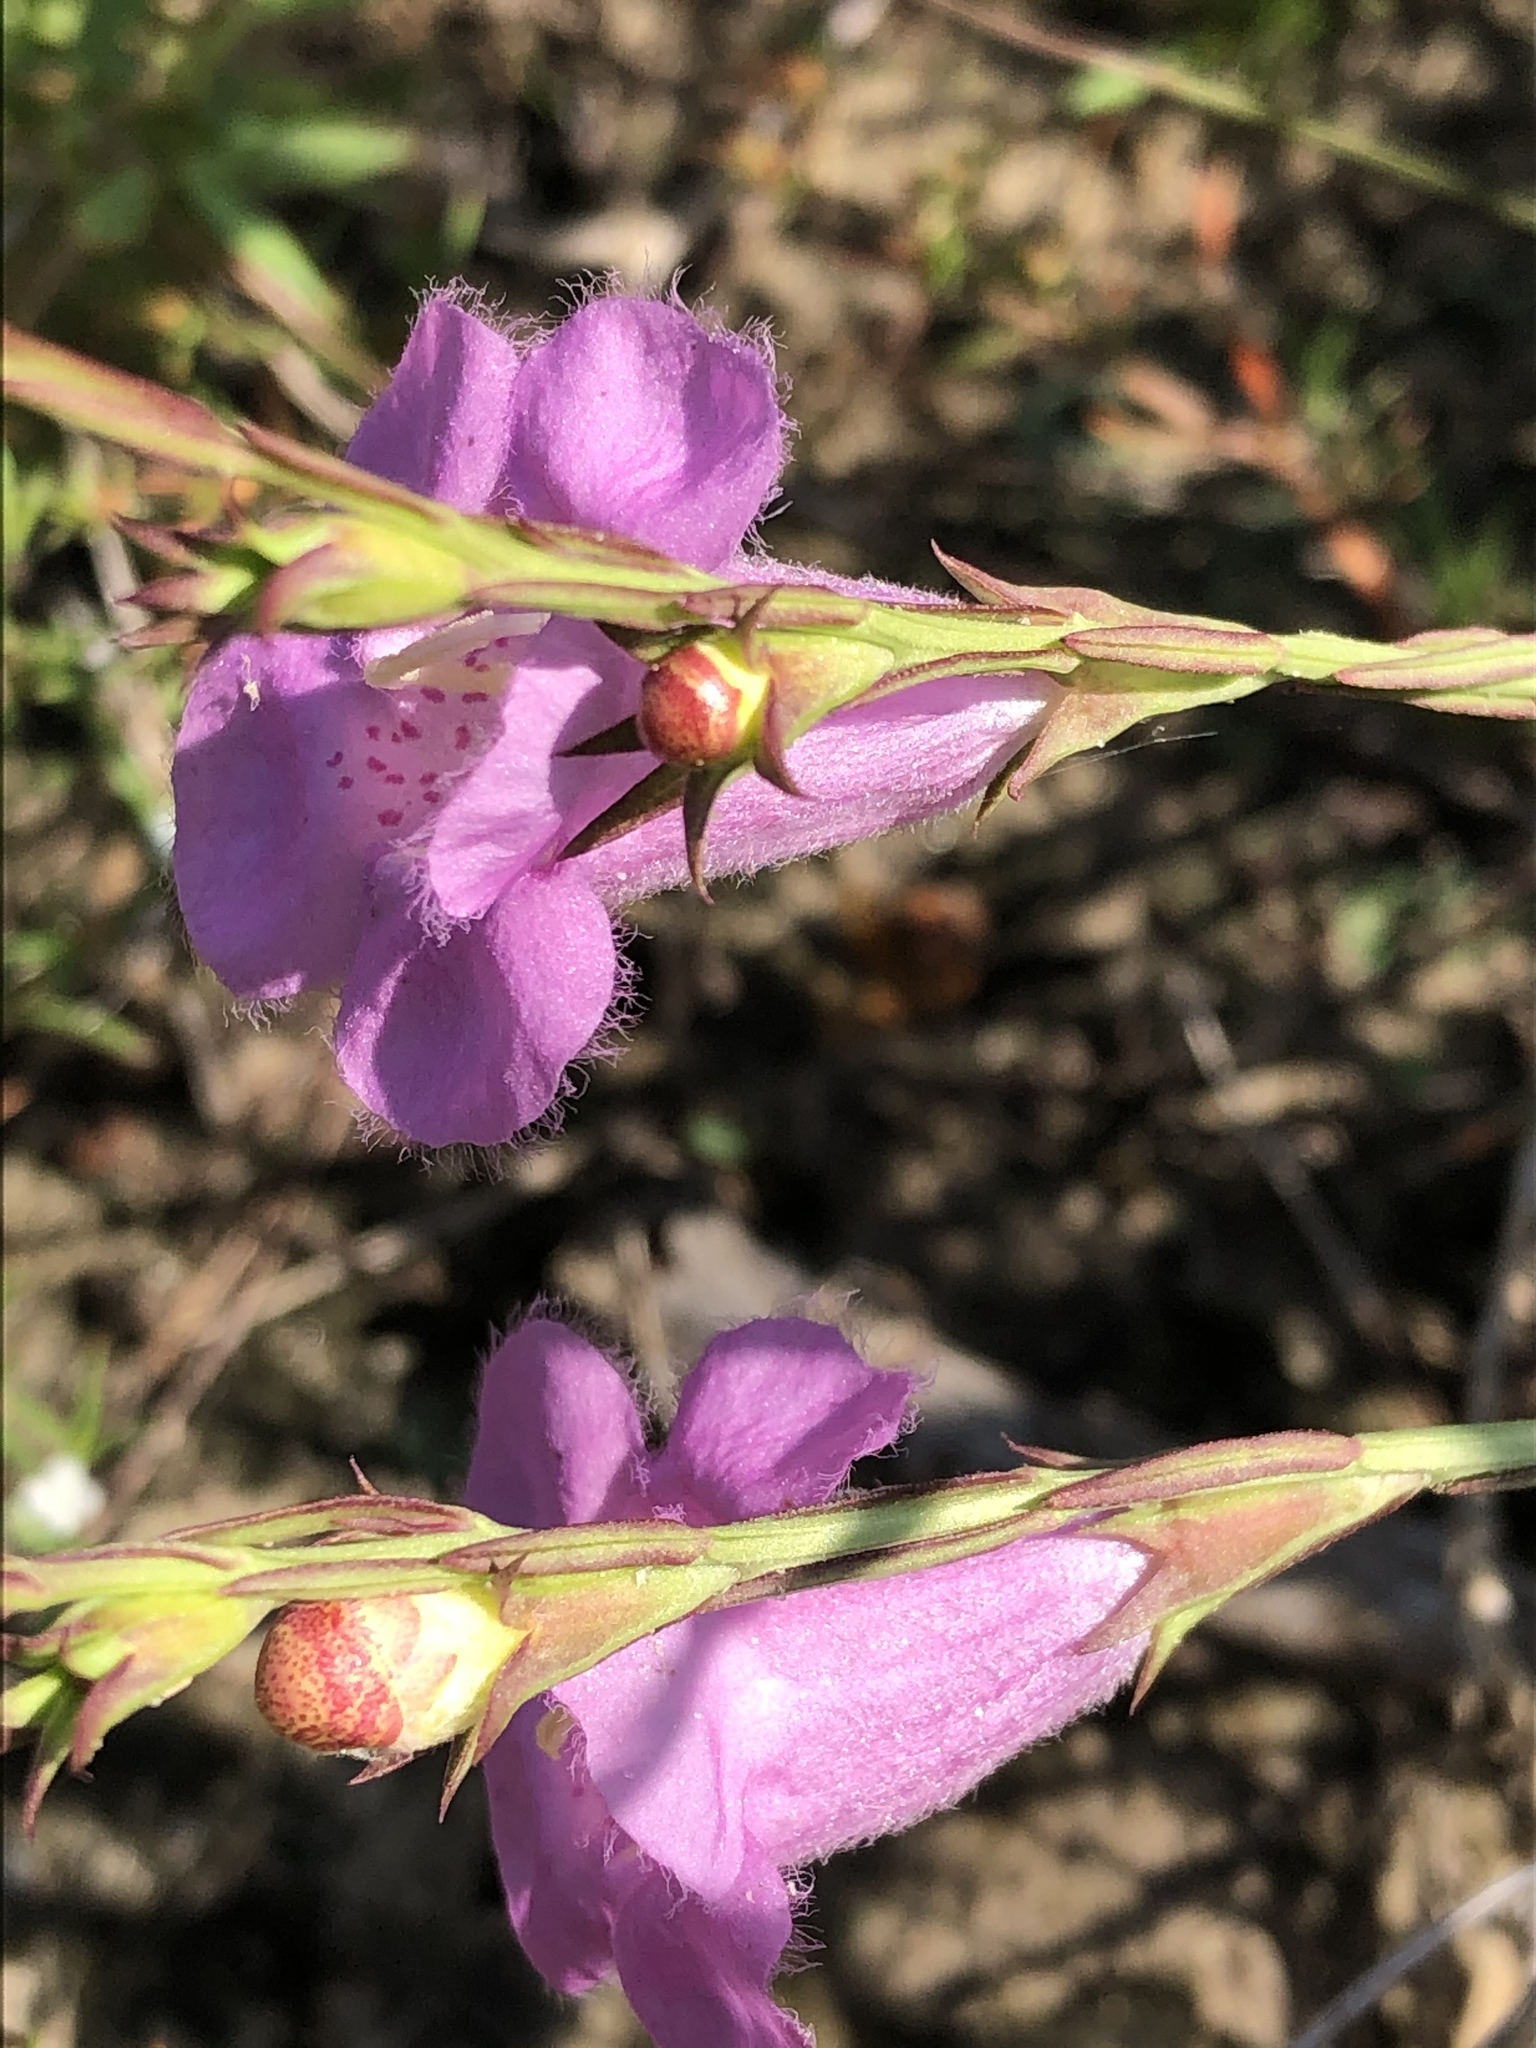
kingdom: Plantae
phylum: Tracheophyta
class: Magnoliopsida
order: Lamiales
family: Orobanchaceae
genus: Agalinis
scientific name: Agalinis heterophylla
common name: Prairie agalinis
